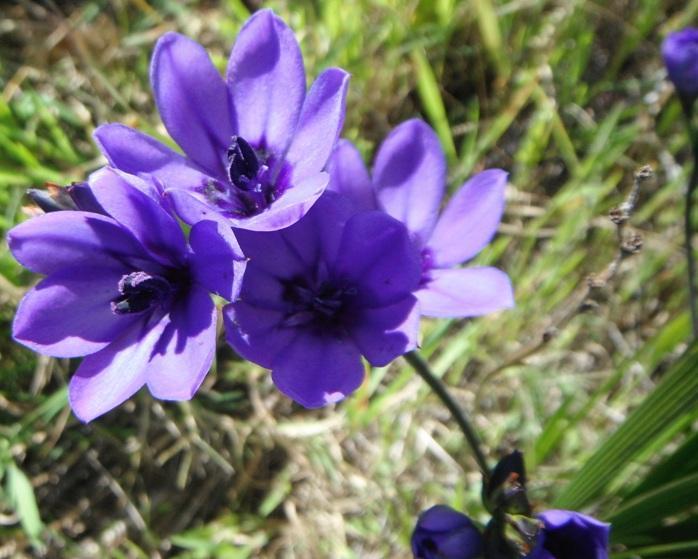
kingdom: Plantae
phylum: Tracheophyta
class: Liliopsida
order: Asparagales
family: Iridaceae
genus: Babiana
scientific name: Babiana angustifolia
